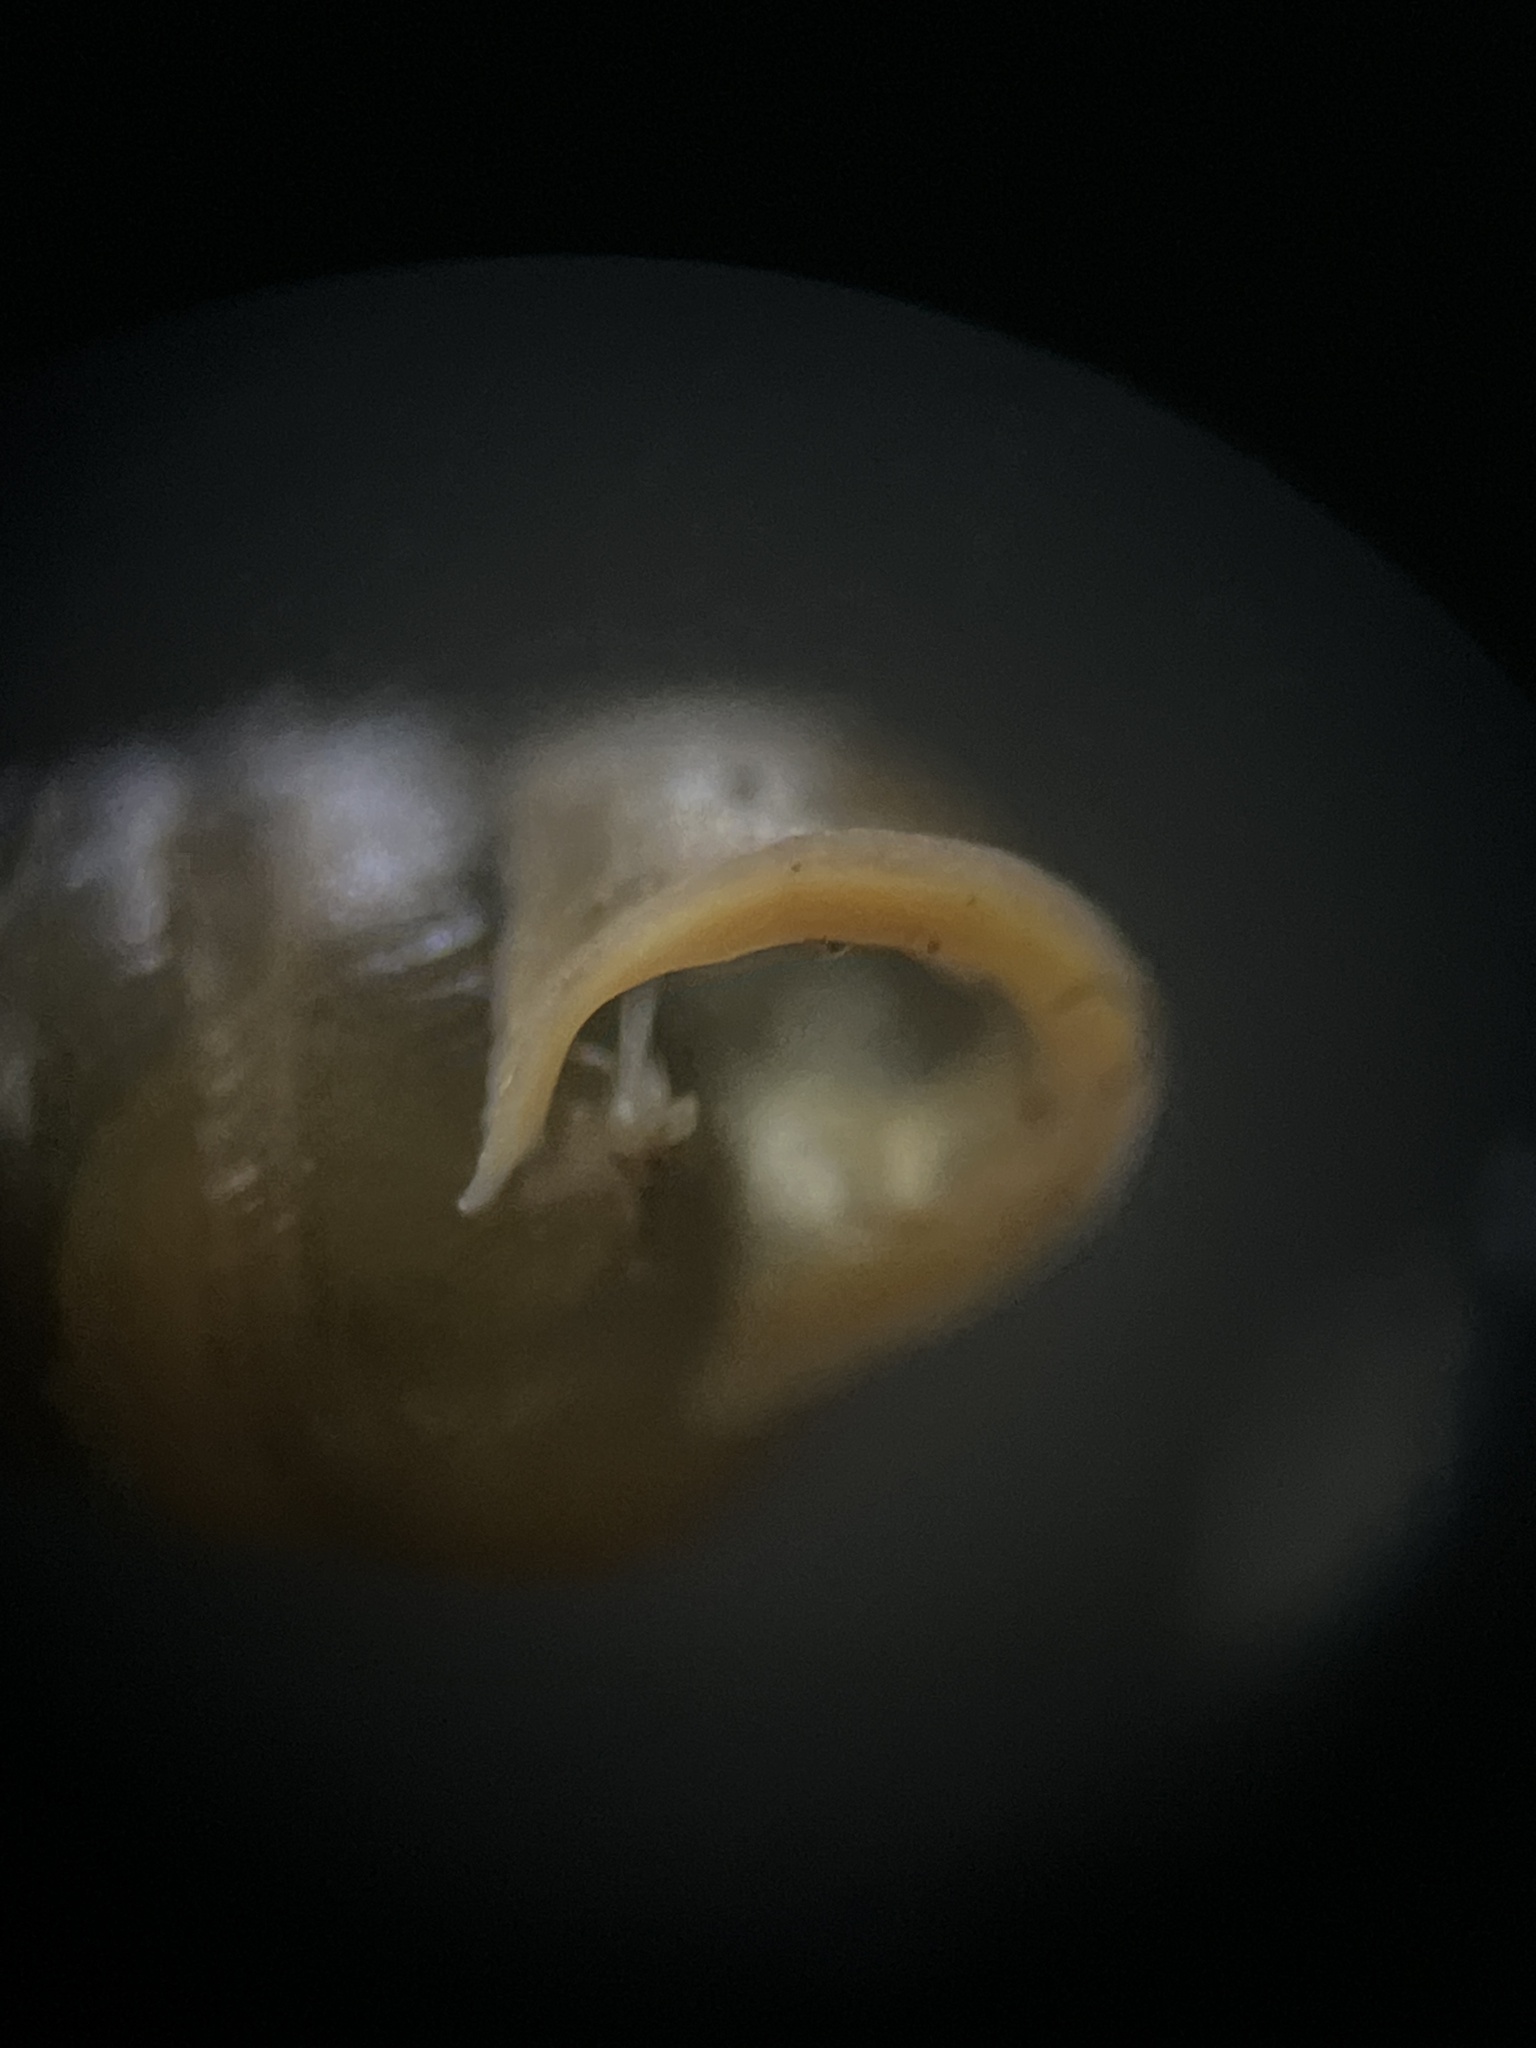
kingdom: Animalia
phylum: Mollusca
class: Gastropoda
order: Stylommatophora
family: Lauriidae
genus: Lauria
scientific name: Lauria cylindracea
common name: Common chrysalis snail
